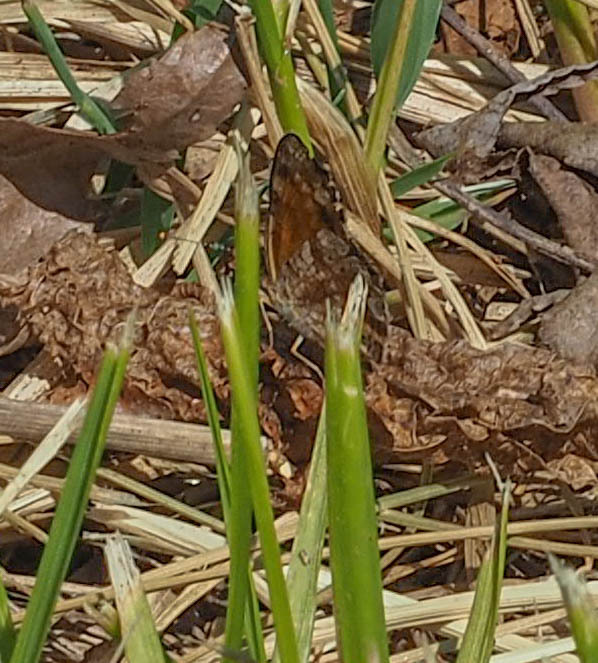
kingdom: Animalia
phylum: Arthropoda
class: Insecta
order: Lepidoptera
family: Nymphalidae
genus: Phyciodes
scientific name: Phyciodes tharos
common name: Pearl crescent
